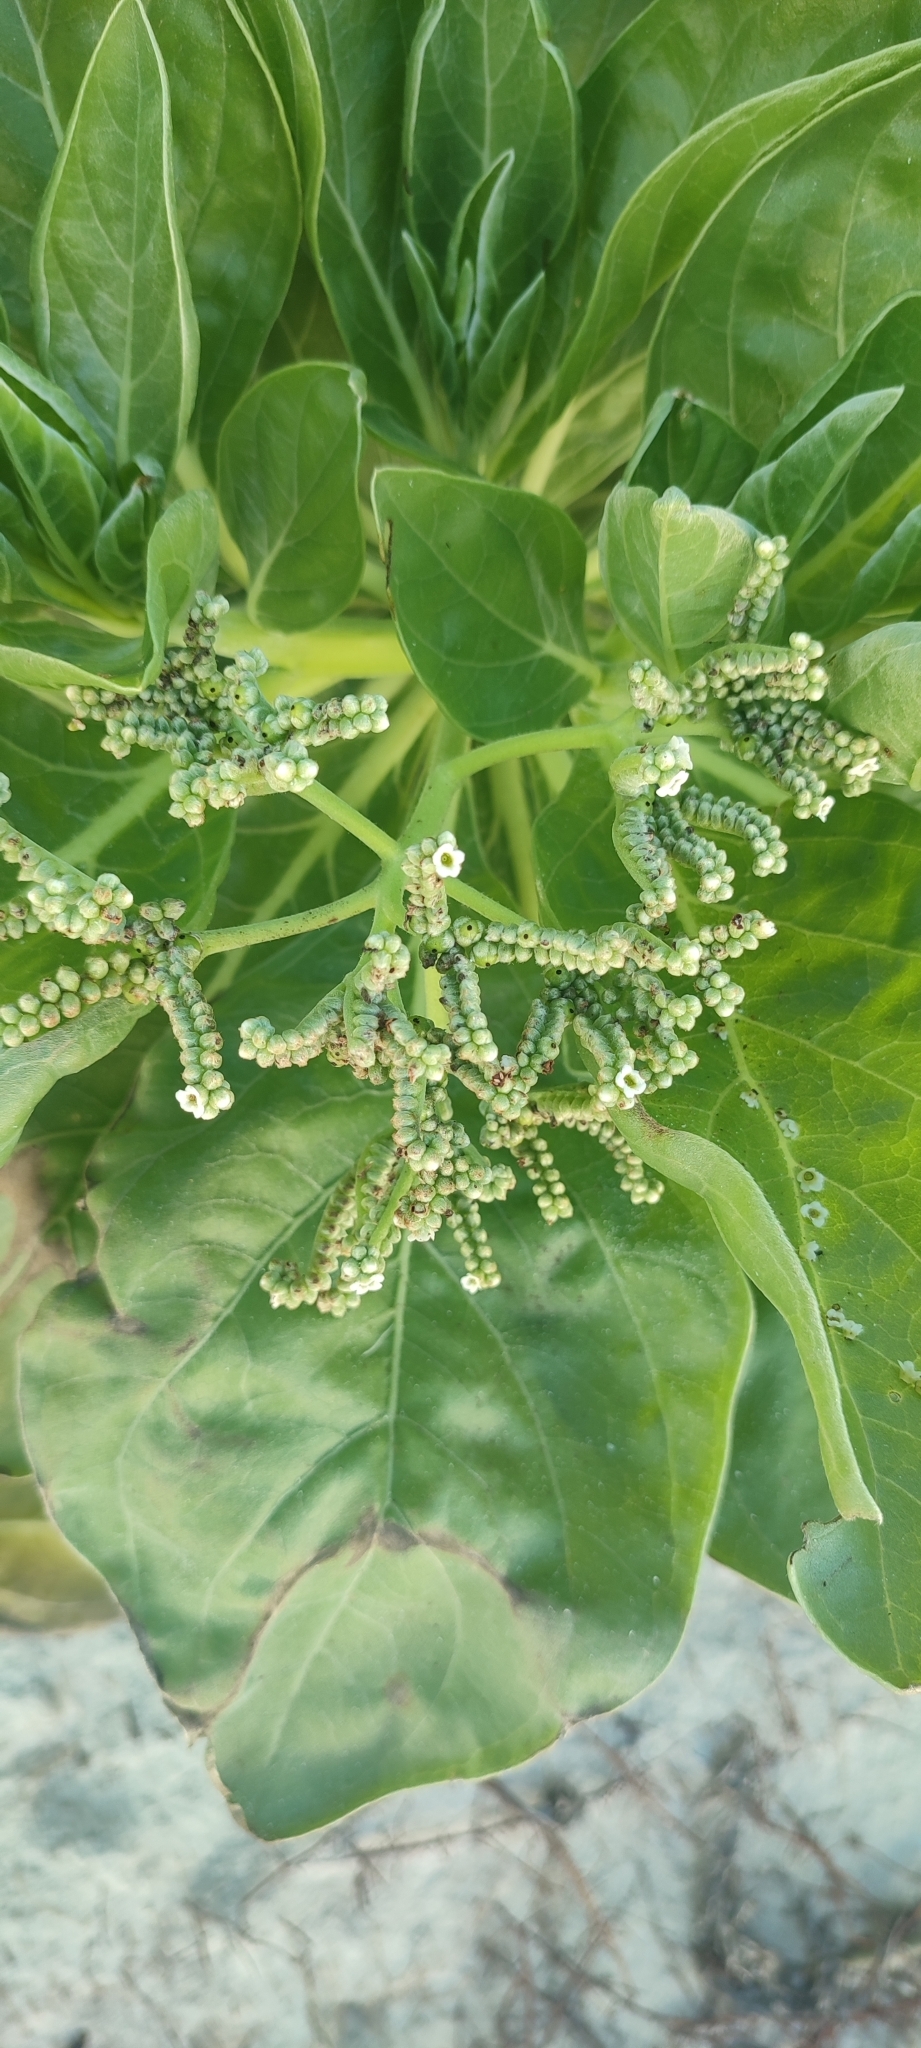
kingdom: Plantae
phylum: Tracheophyta
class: Magnoliopsida
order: Boraginales
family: Heliotropiaceae
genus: Heliotropium
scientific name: Heliotropium velutinum
